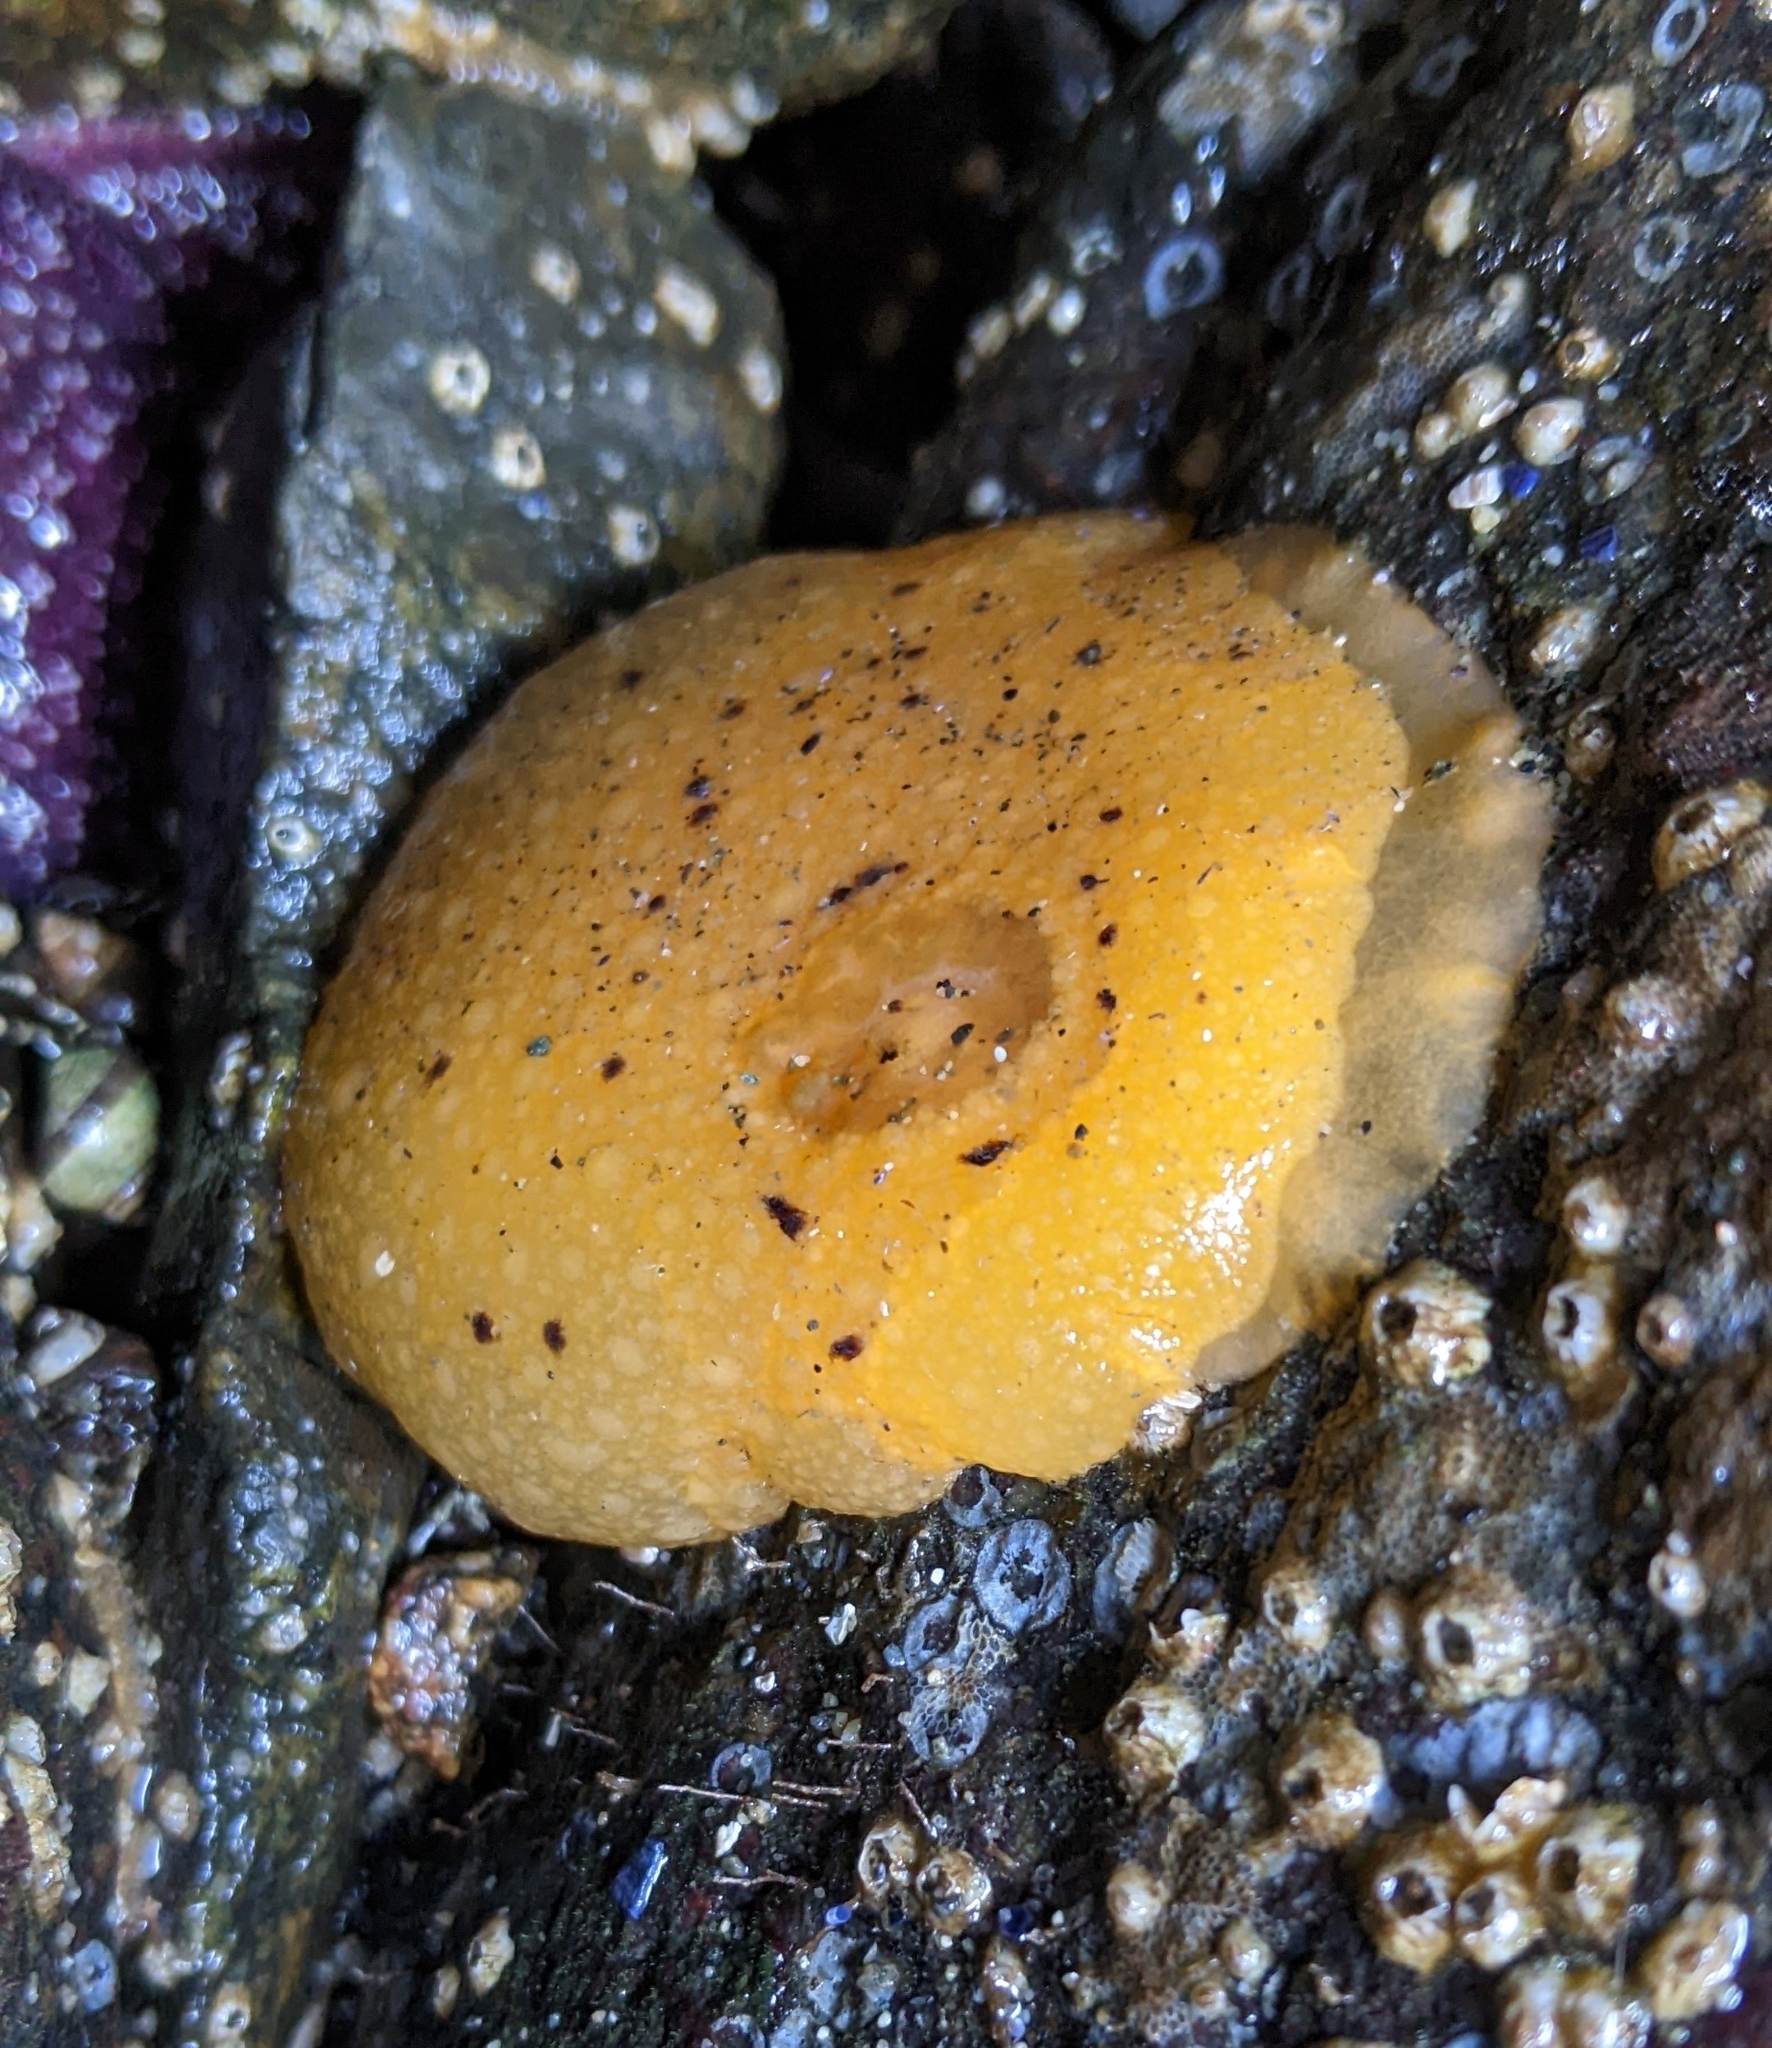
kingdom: Animalia
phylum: Mollusca
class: Gastropoda
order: Nudibranchia
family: Dorididae
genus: Doris
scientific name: Doris montereyensis
